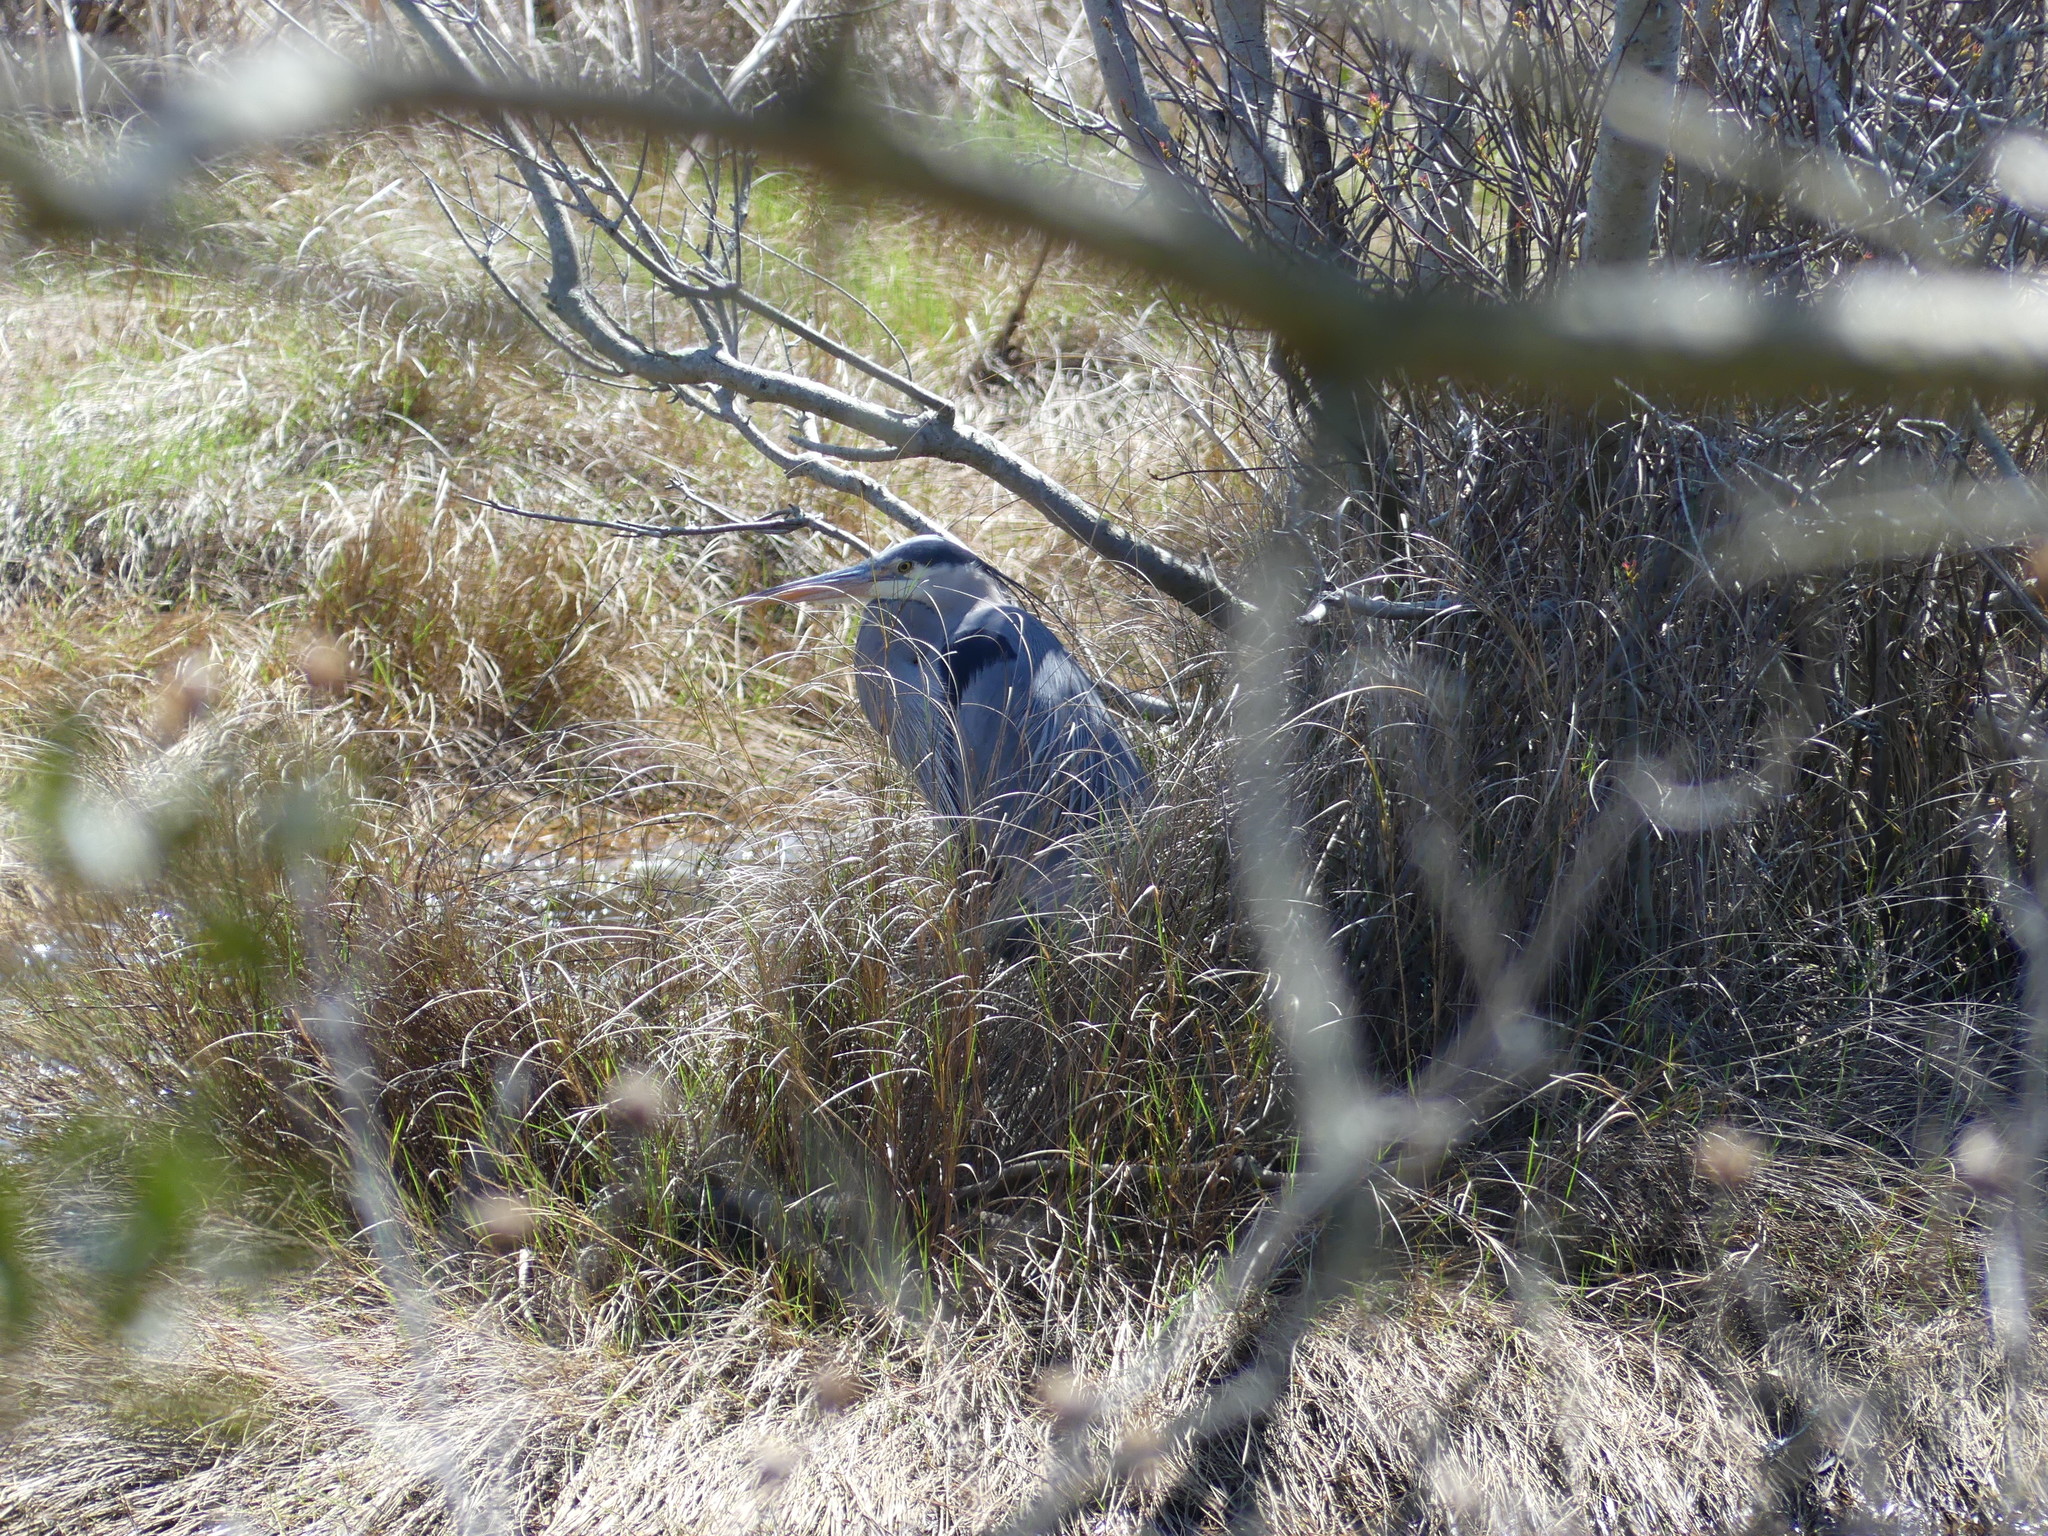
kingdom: Animalia
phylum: Chordata
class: Aves
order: Pelecaniformes
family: Ardeidae
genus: Ardea
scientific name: Ardea herodias
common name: Great blue heron
